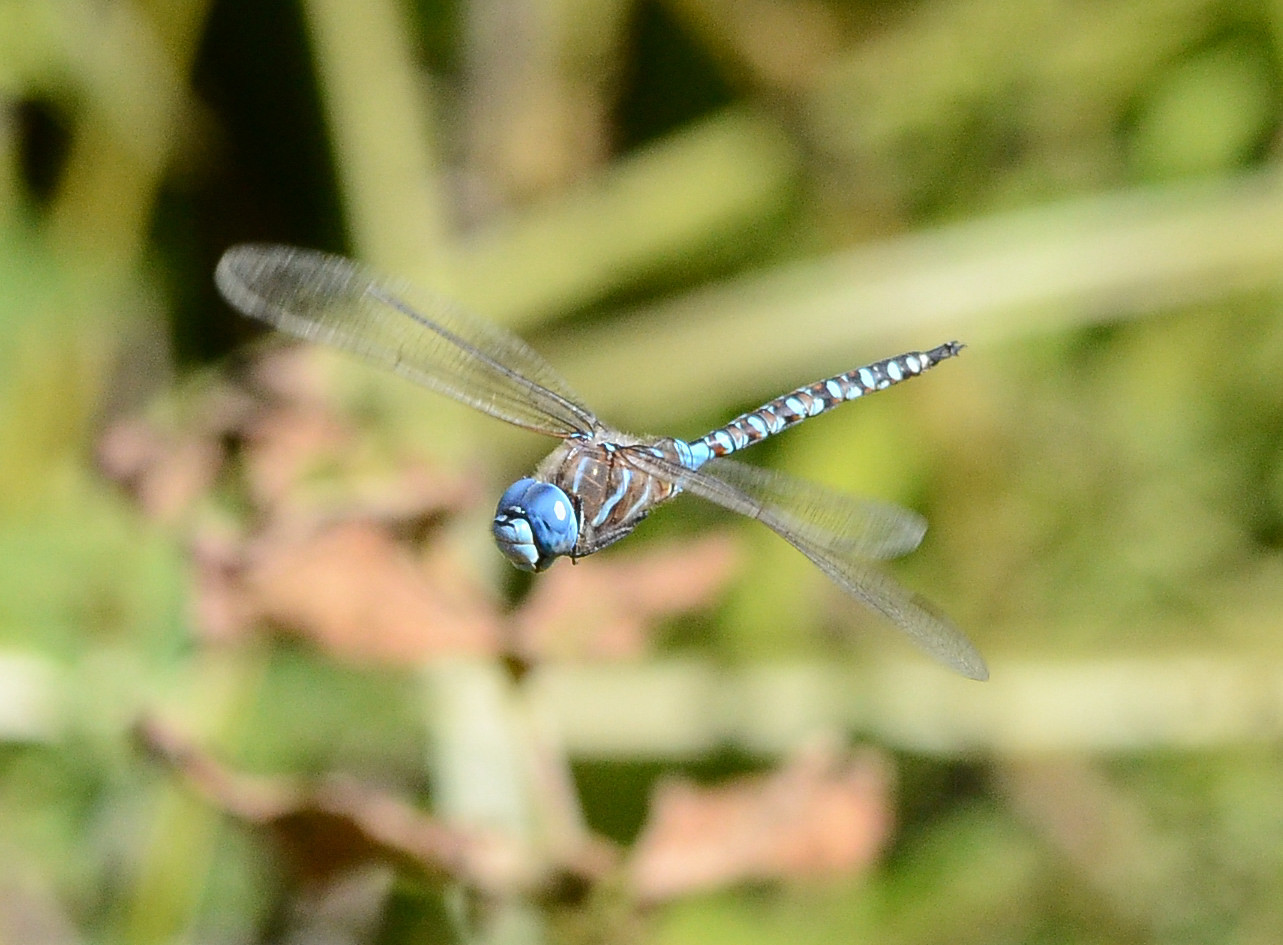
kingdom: Animalia
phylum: Arthropoda
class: Insecta
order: Odonata
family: Aeshnidae
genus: Rhionaeschna
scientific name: Rhionaeschna multicolor
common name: Blue-eyed darner
